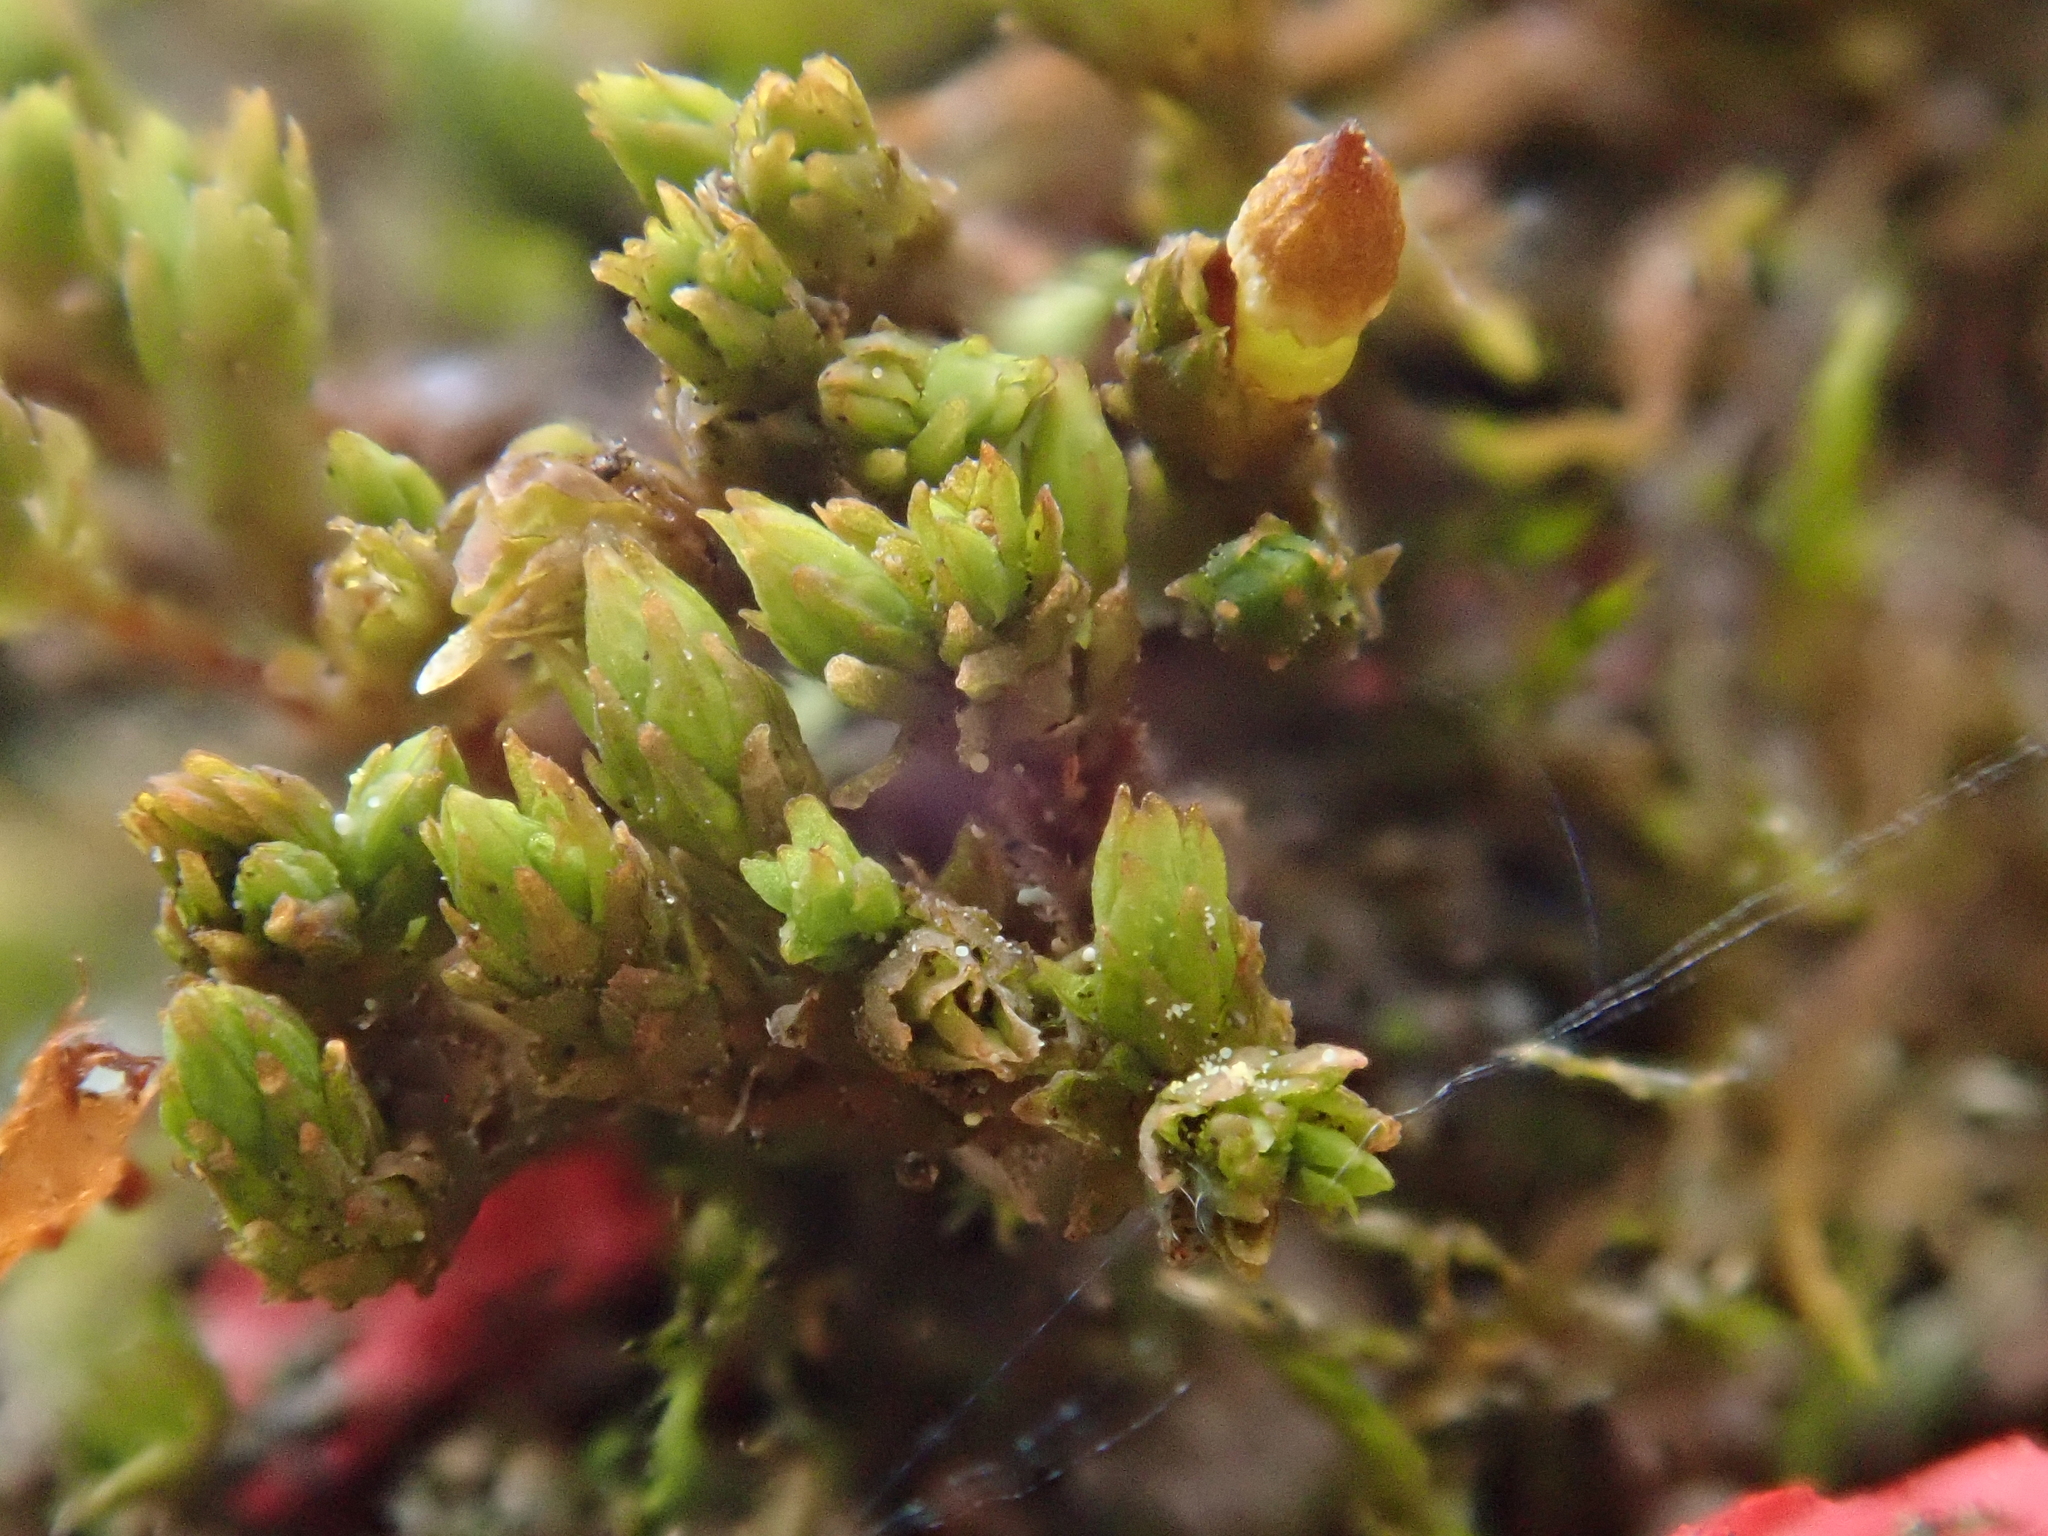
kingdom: Plantae
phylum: Bryophyta
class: Bryopsida
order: Orthotrichales
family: Orthotrichaceae
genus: Nyholmiella
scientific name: Nyholmiella obtusifolia
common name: Blunt-leaved bristle-moss
